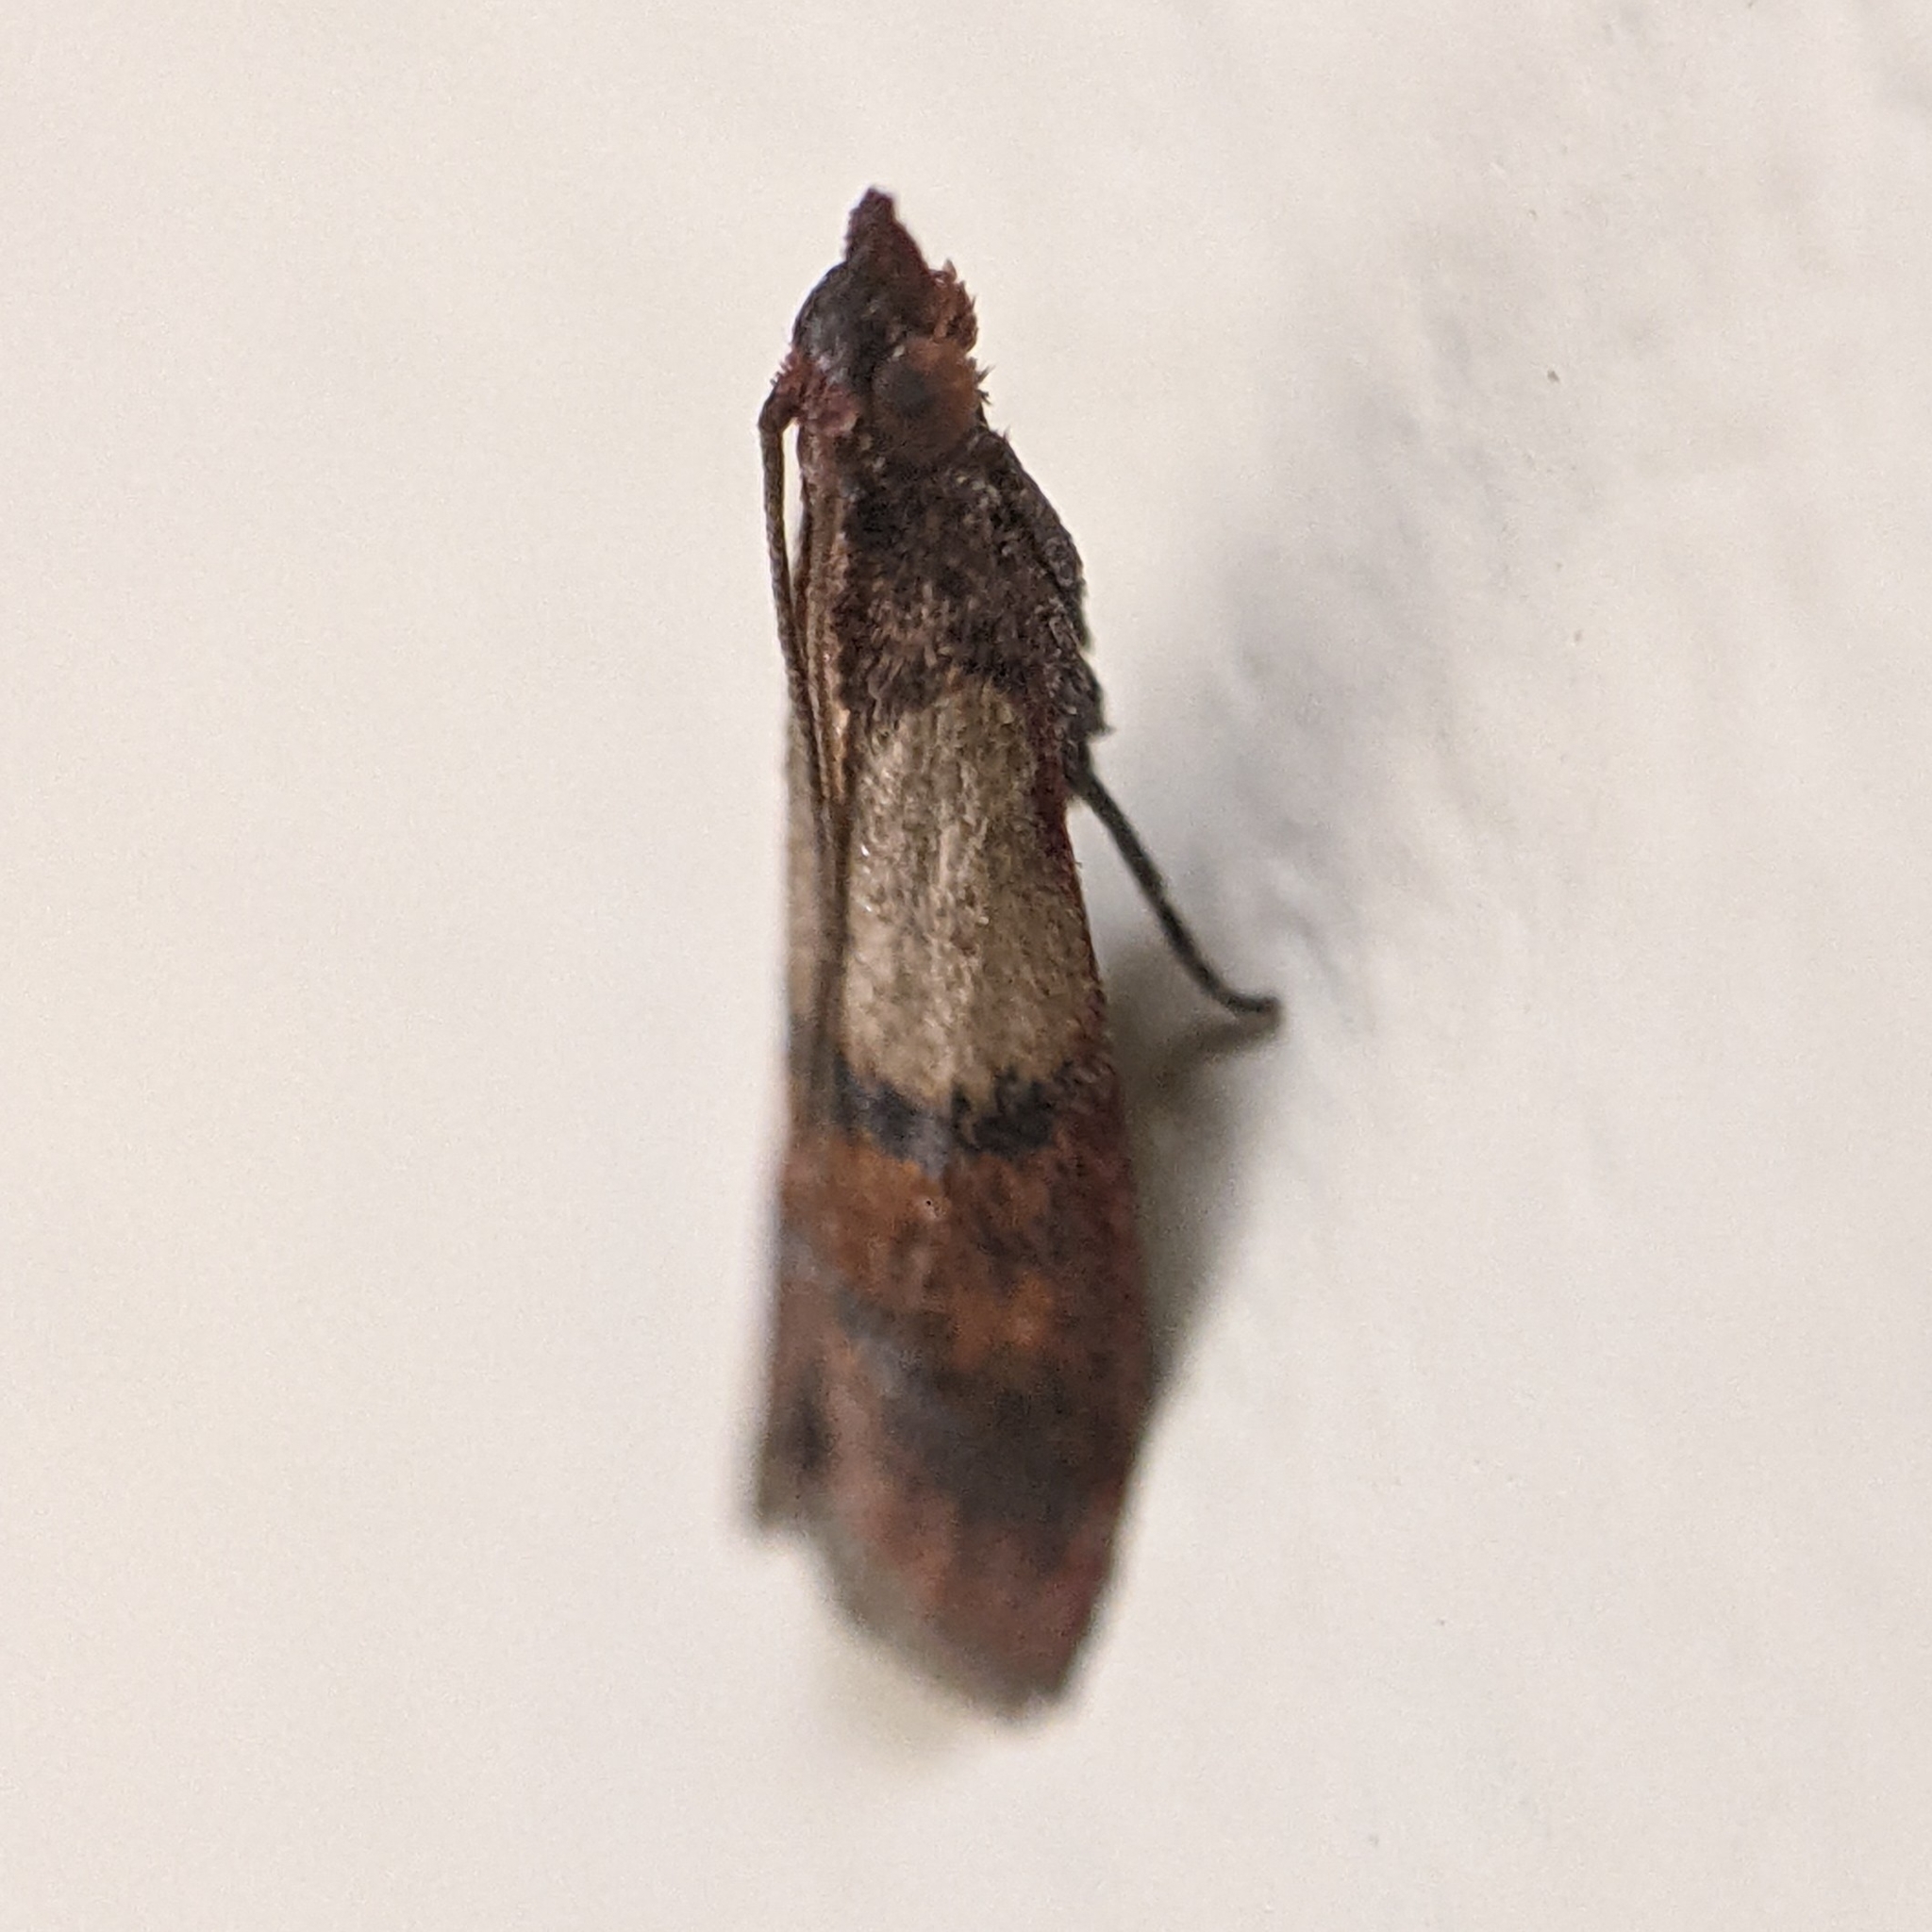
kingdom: Animalia
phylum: Arthropoda
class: Insecta
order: Lepidoptera
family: Pyralidae
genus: Plodia
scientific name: Plodia interpunctella
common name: Indian meal moth
